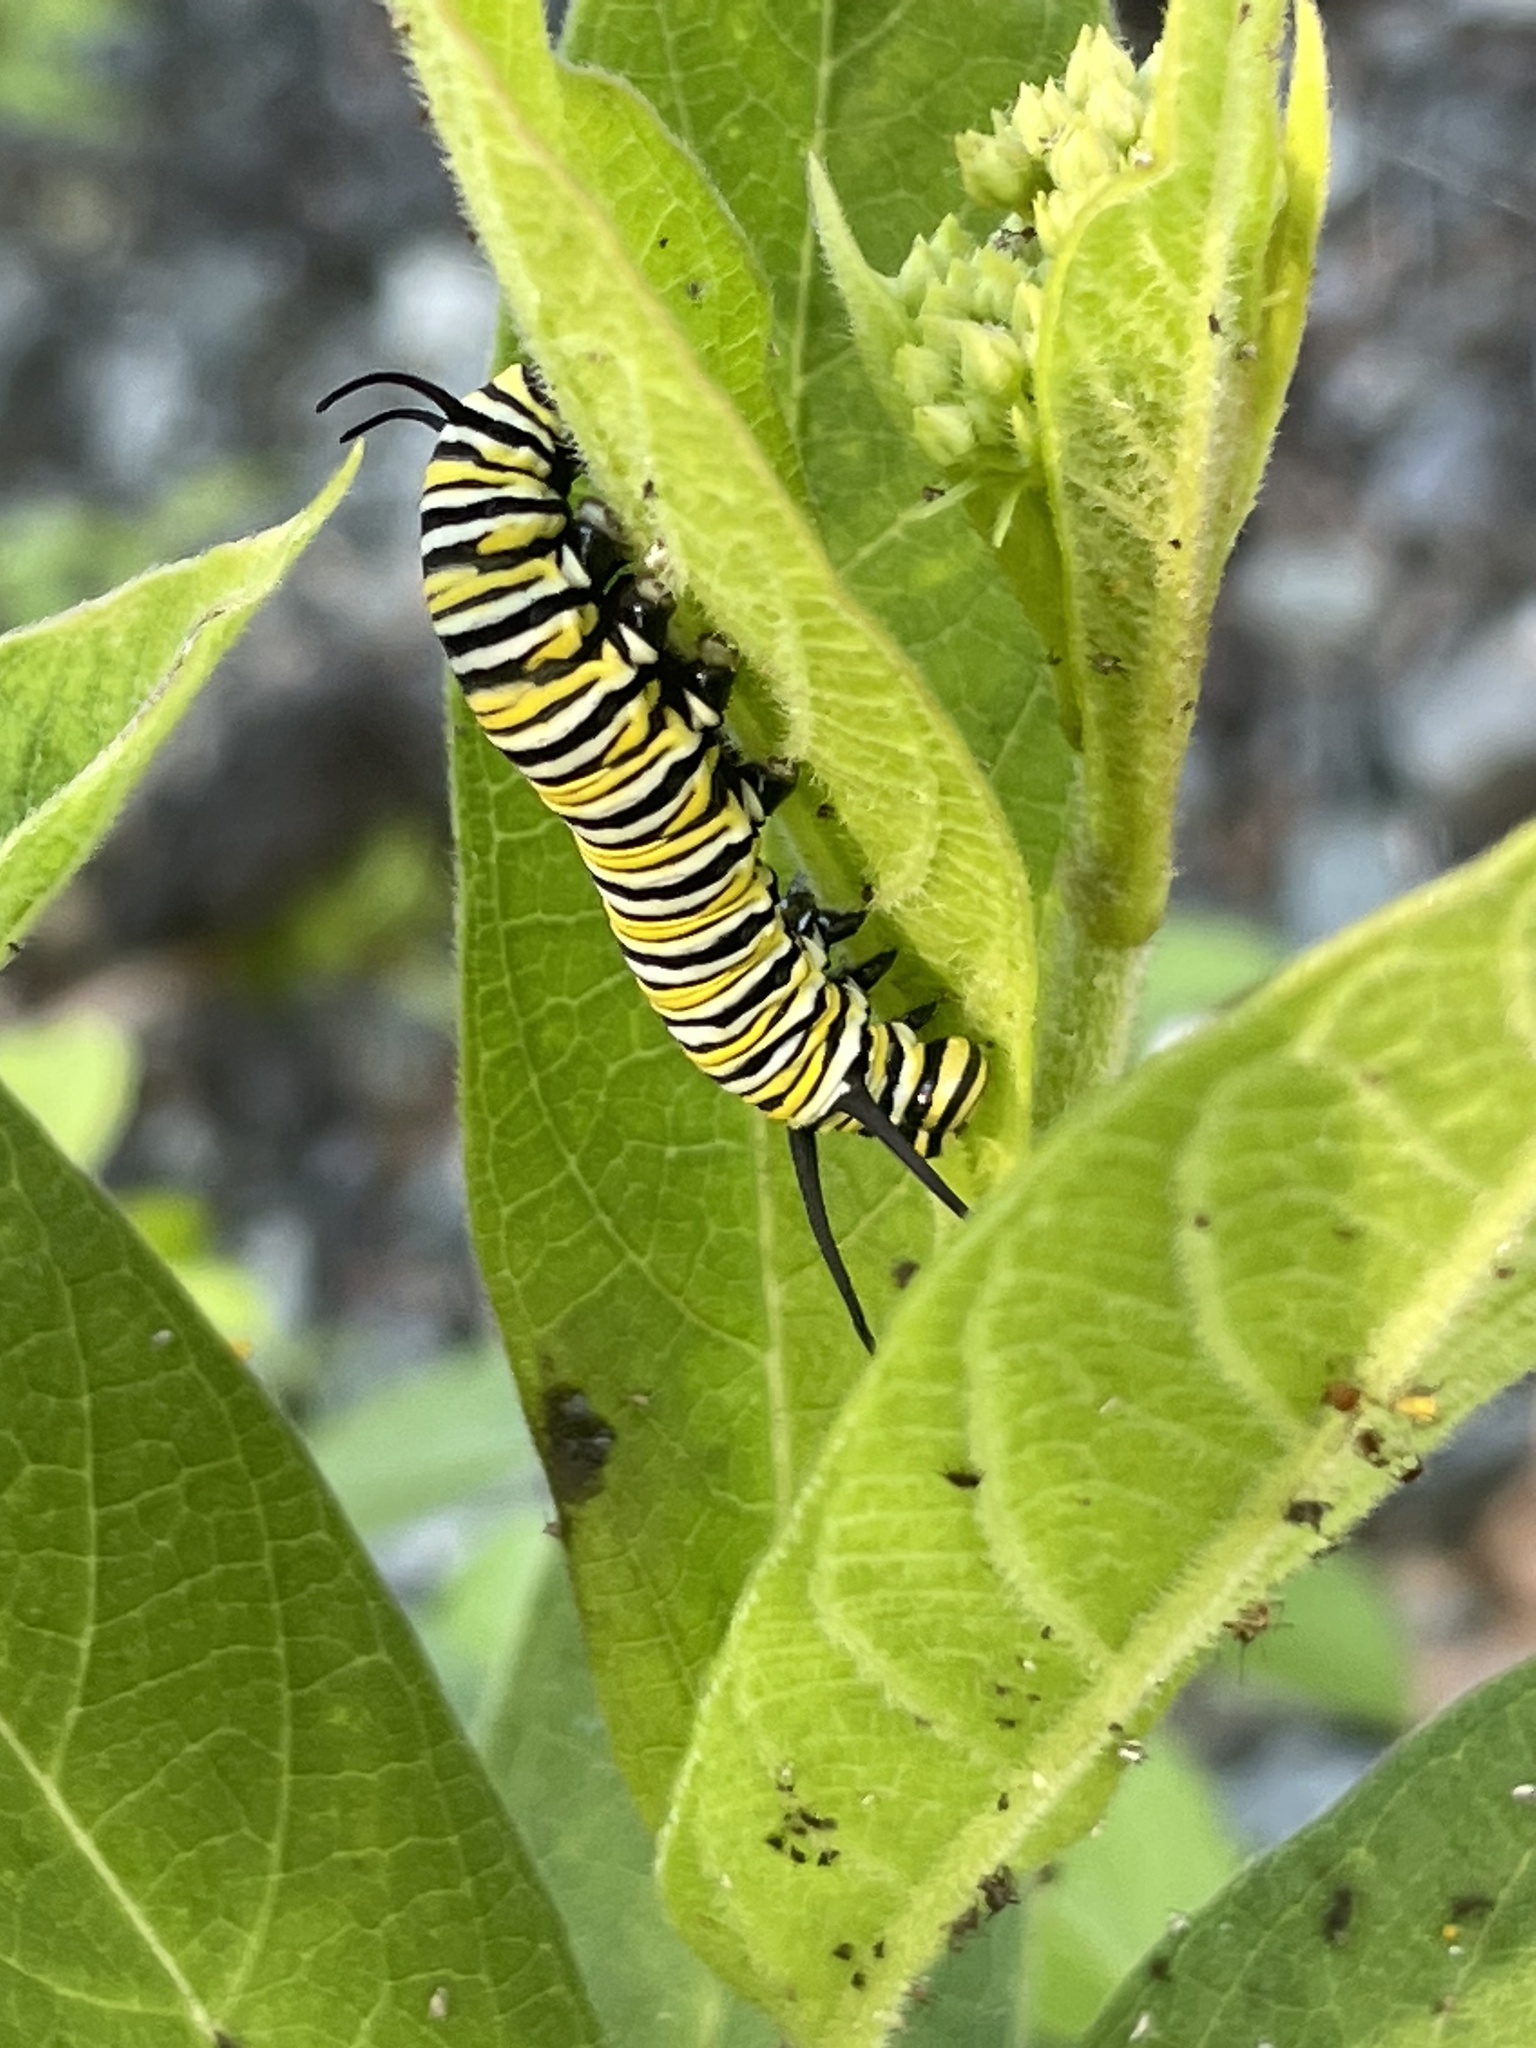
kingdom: Animalia
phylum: Arthropoda
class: Insecta
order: Lepidoptera
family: Nymphalidae
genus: Danaus
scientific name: Danaus plexippus
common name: Monarch
